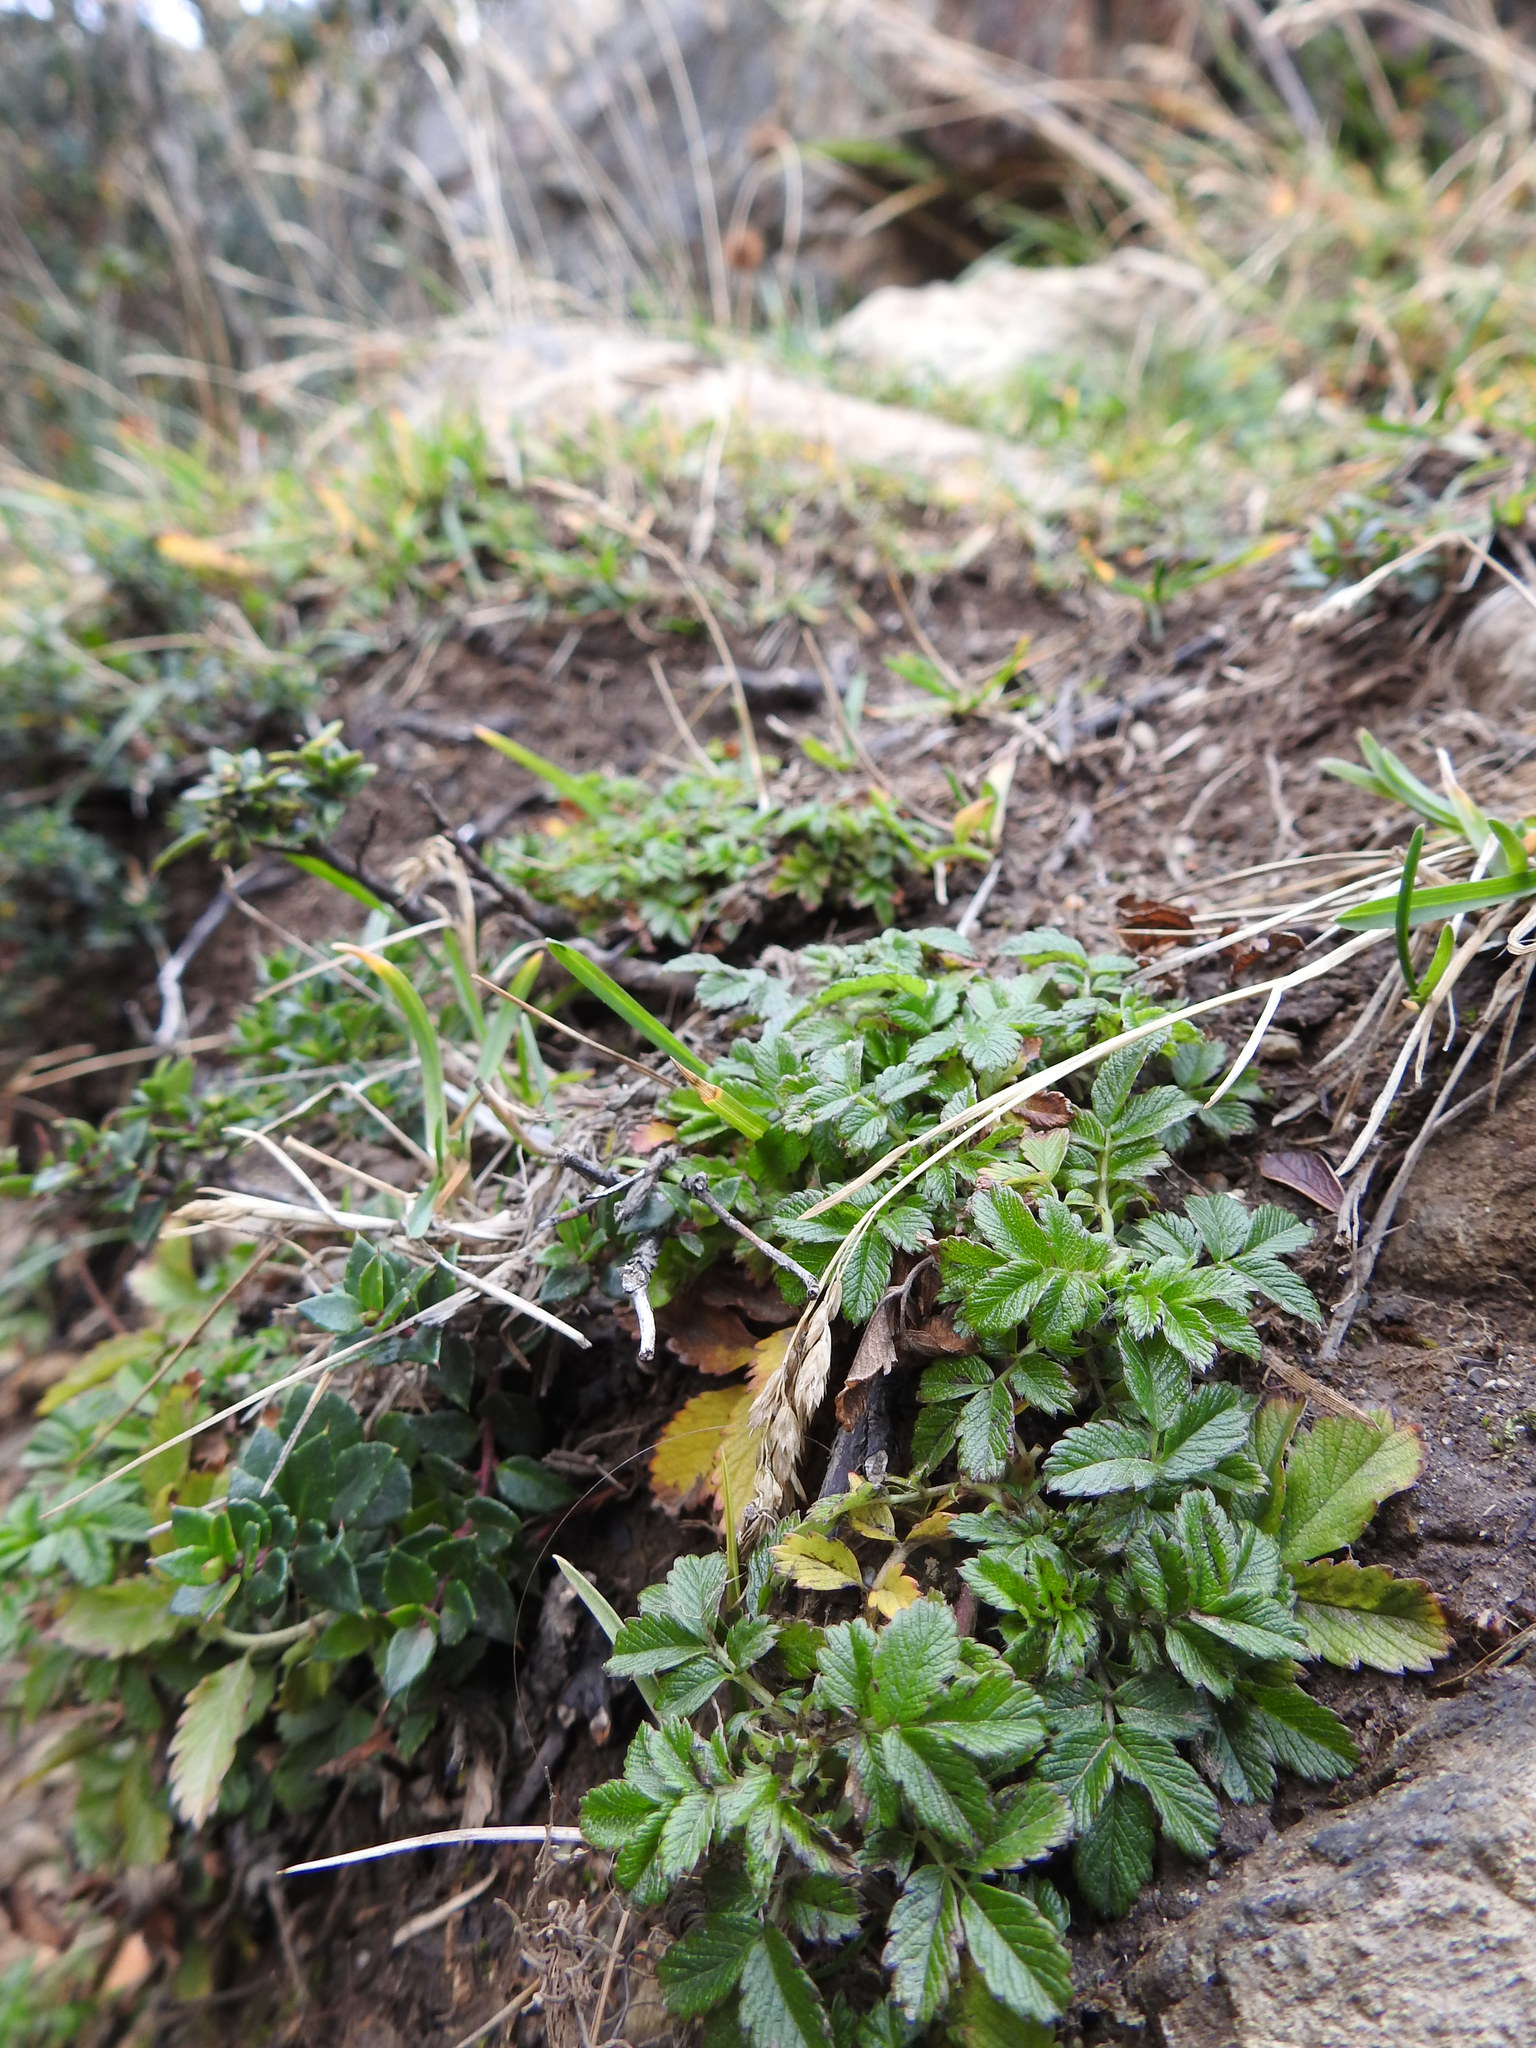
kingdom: Plantae
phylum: Tracheophyta
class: Magnoliopsida
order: Rosales
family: Rosaceae
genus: Acaena
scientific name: Acaena ovalifolia
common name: Two-spined acaena
